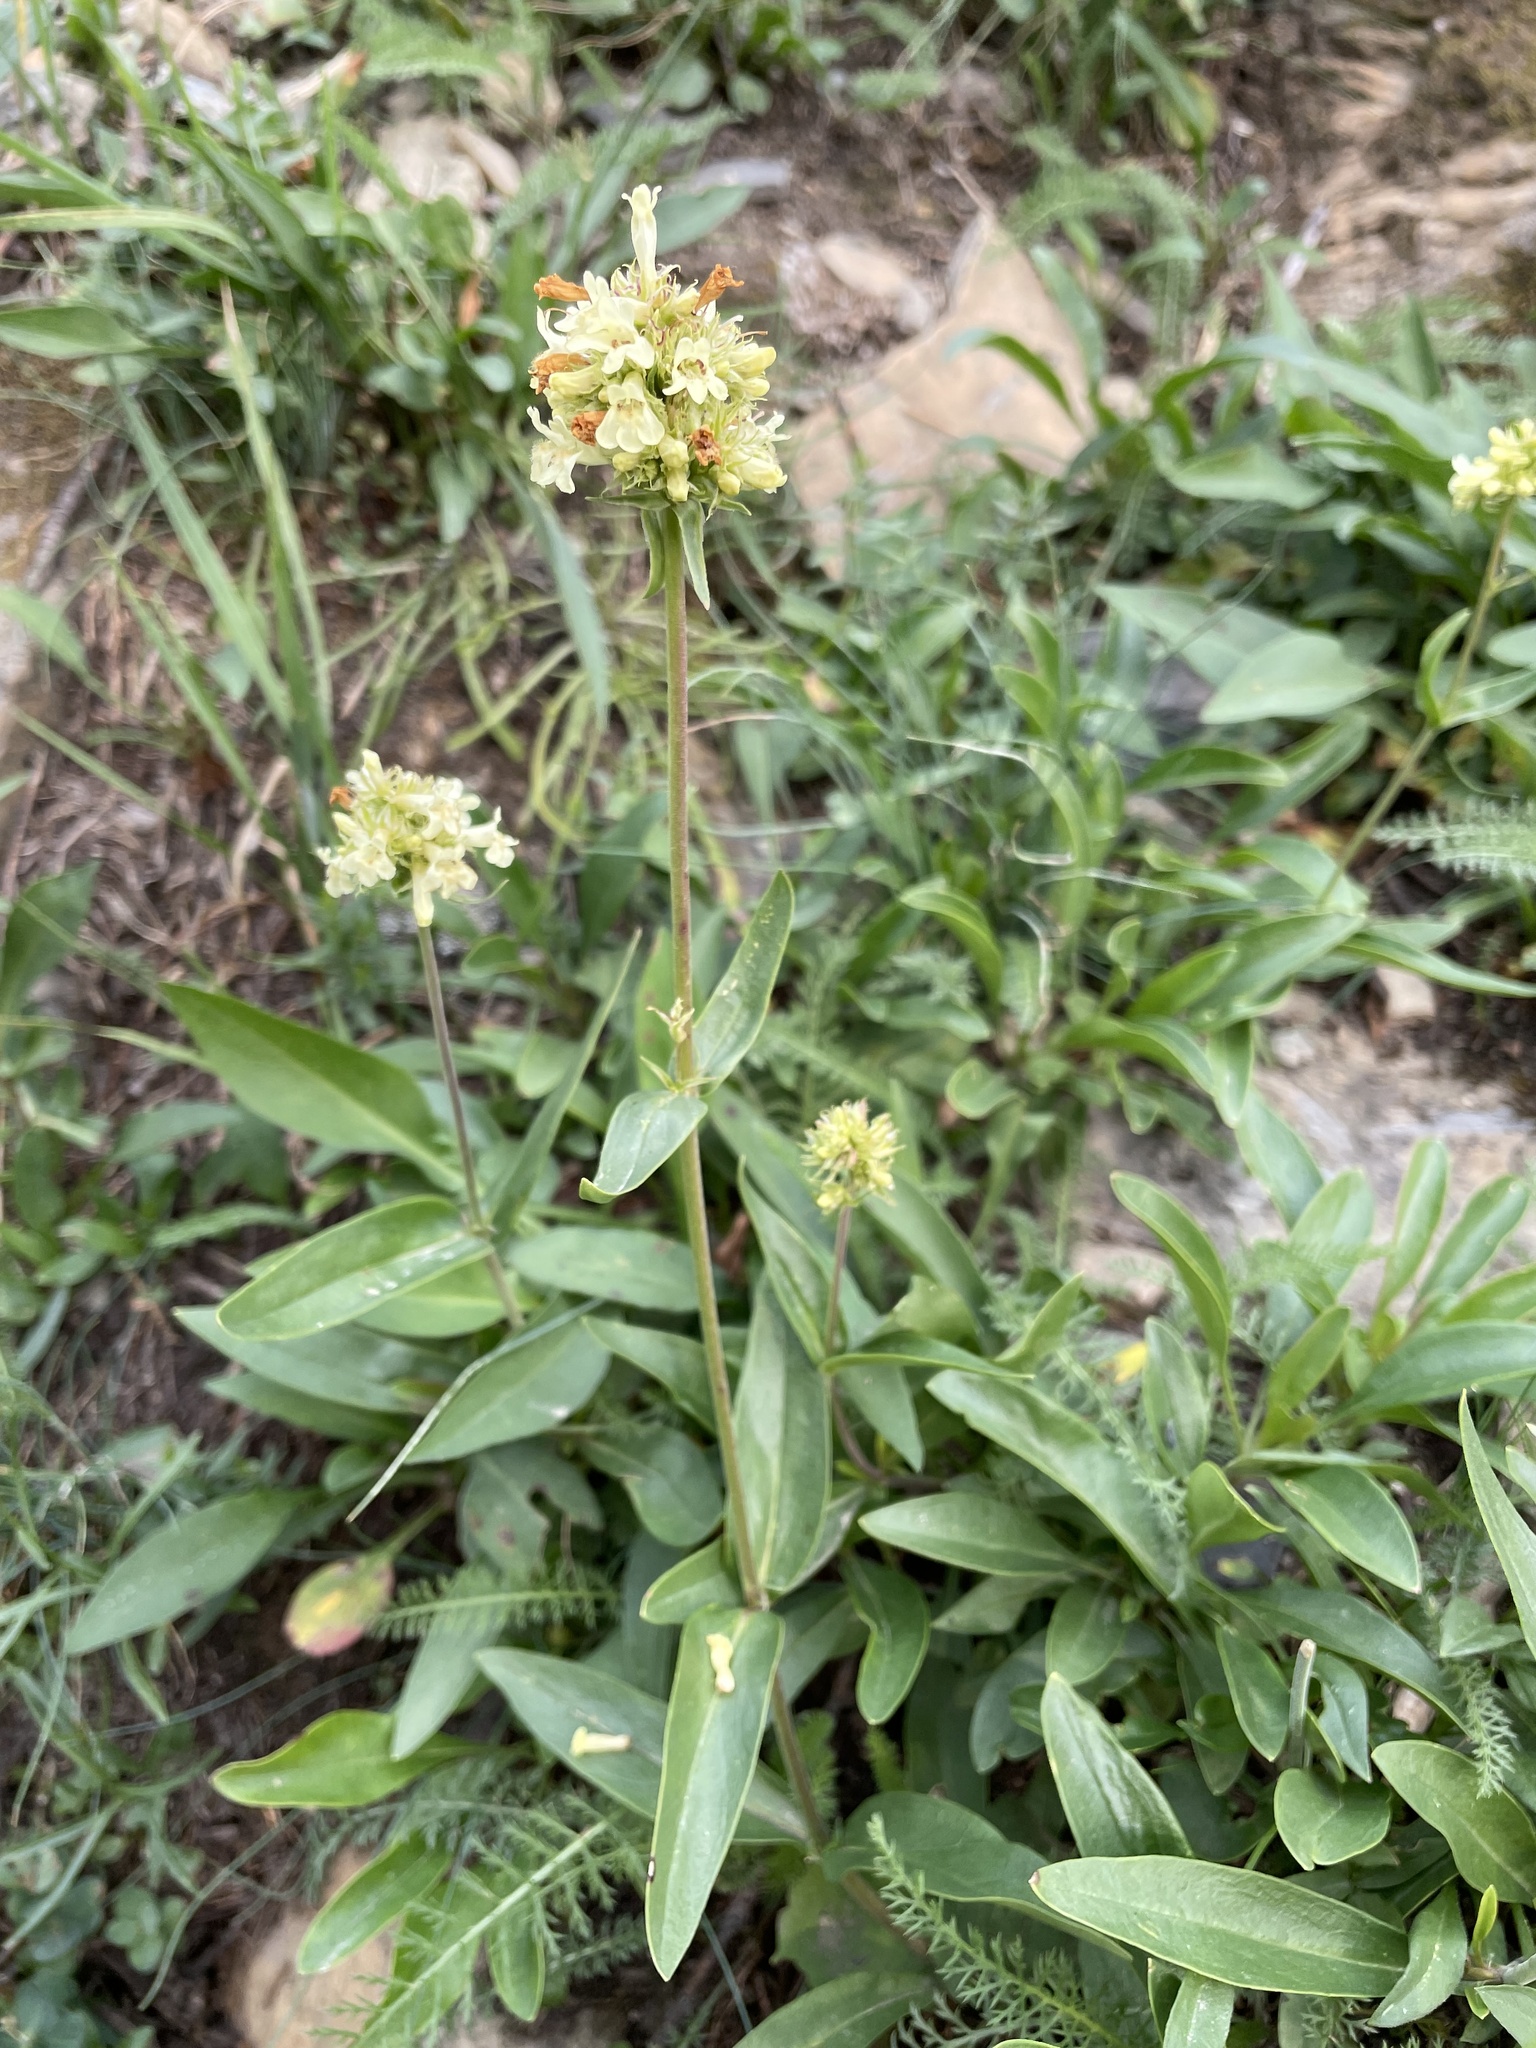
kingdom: Plantae
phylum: Tracheophyta
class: Magnoliopsida
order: Lamiales
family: Plantaginaceae
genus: Penstemon
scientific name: Penstemon confertus
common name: Lesser yellow beardtongue
